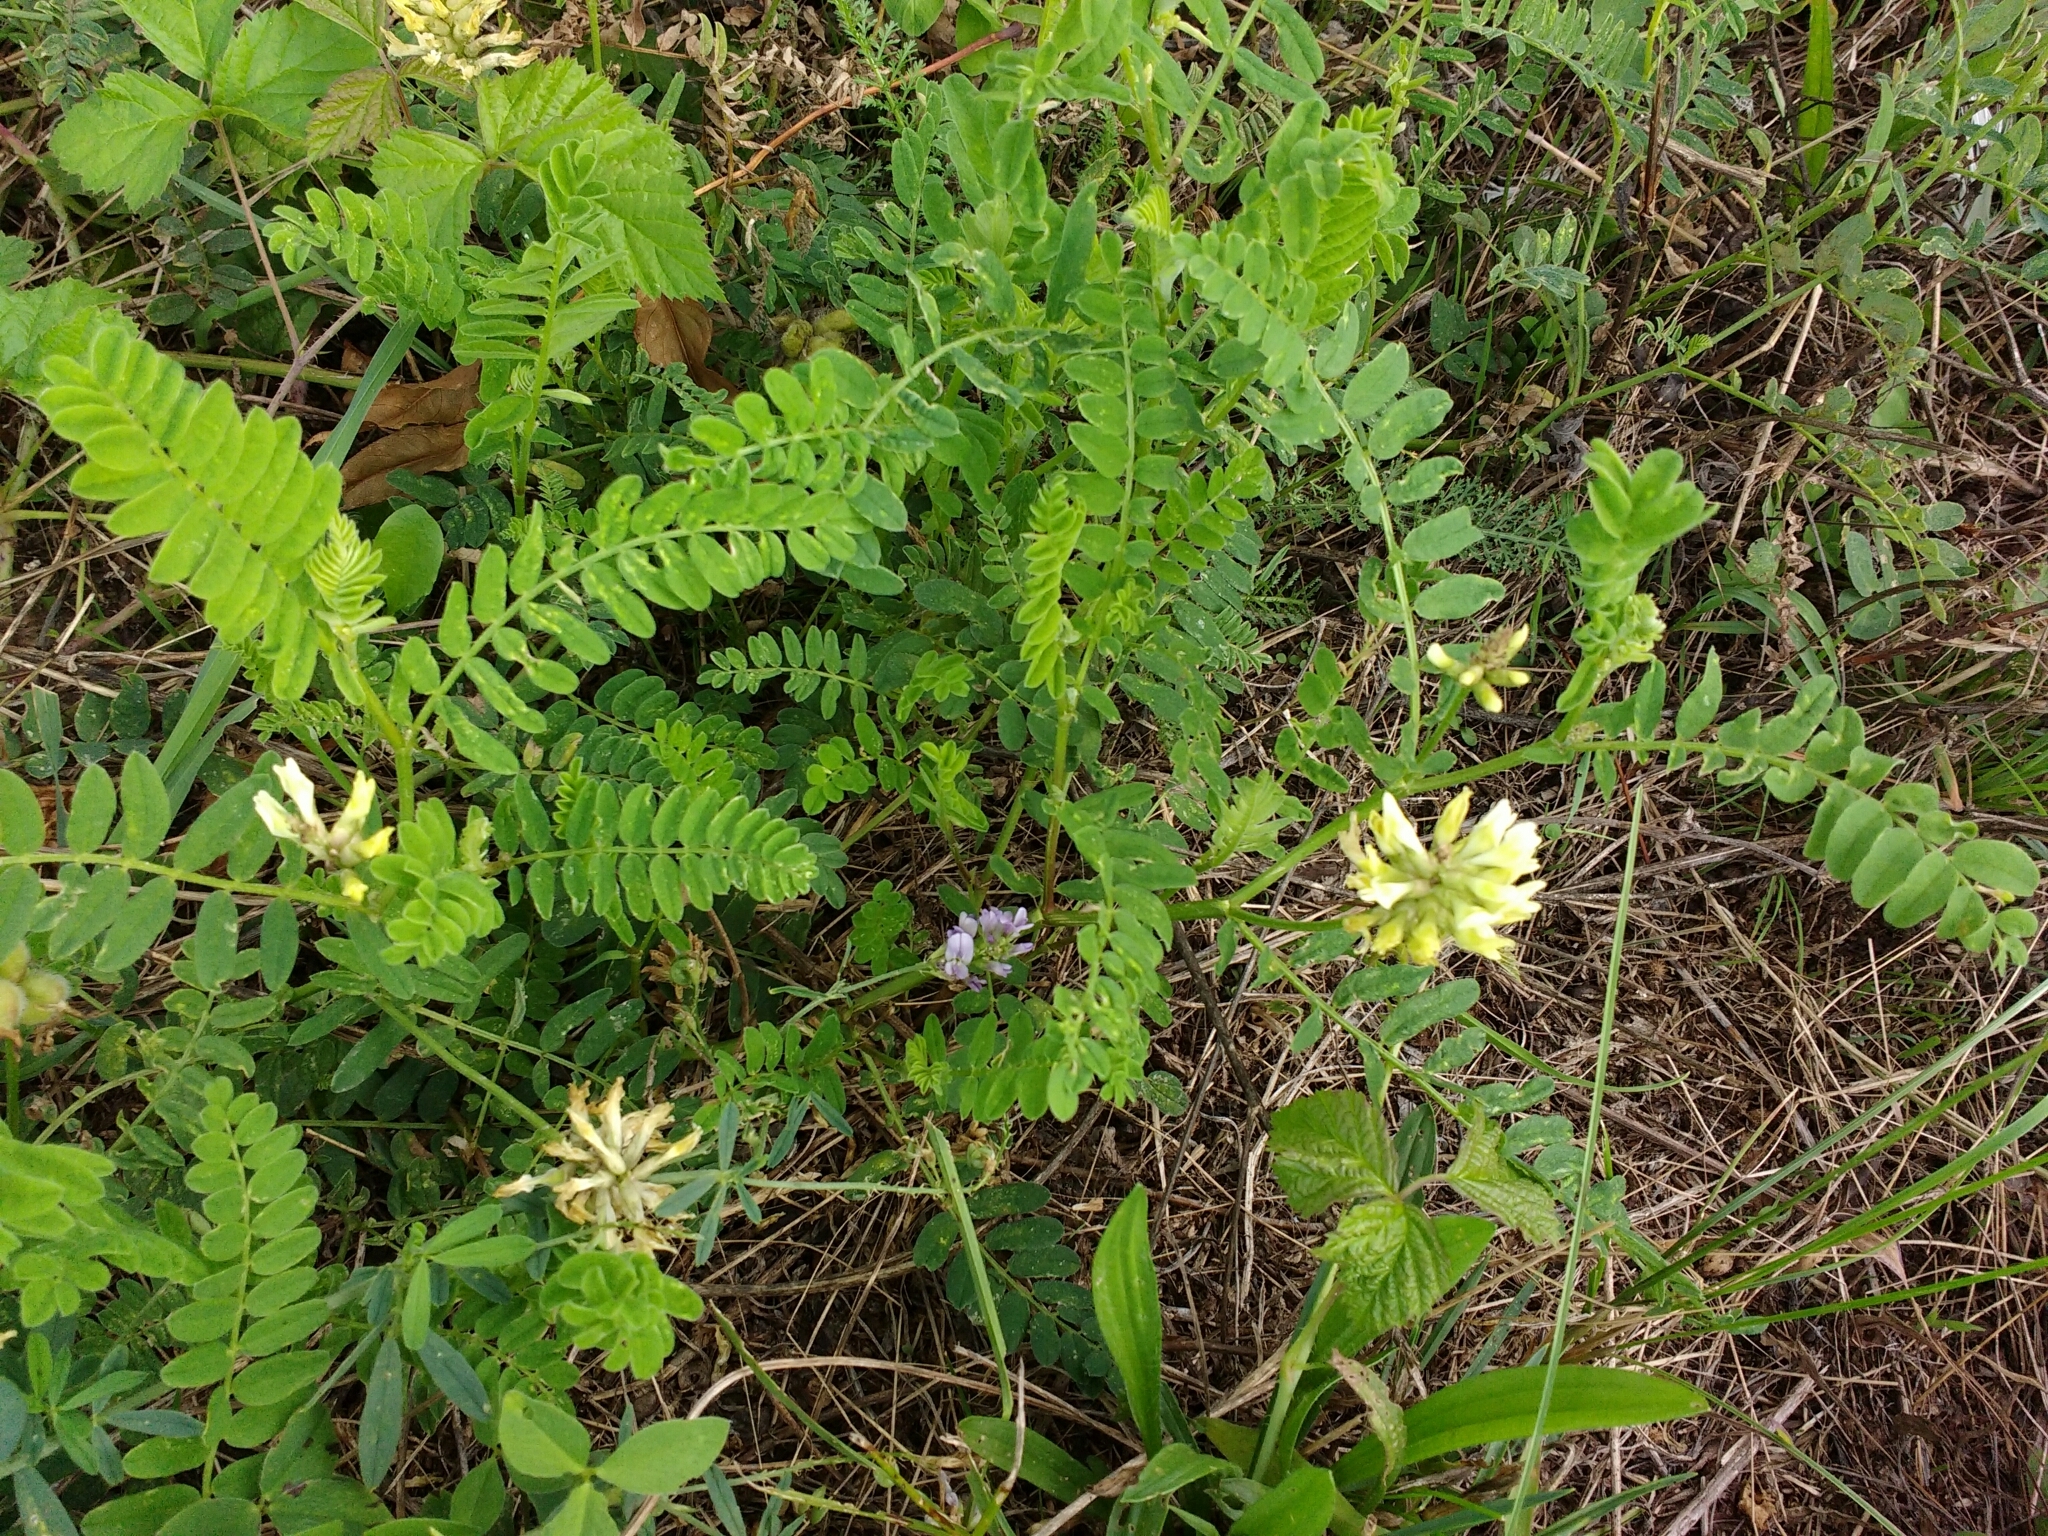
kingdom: Plantae
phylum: Tracheophyta
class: Magnoliopsida
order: Fabales
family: Fabaceae
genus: Astragalus
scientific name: Astragalus cicer
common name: Chick-pea milk-vetch
